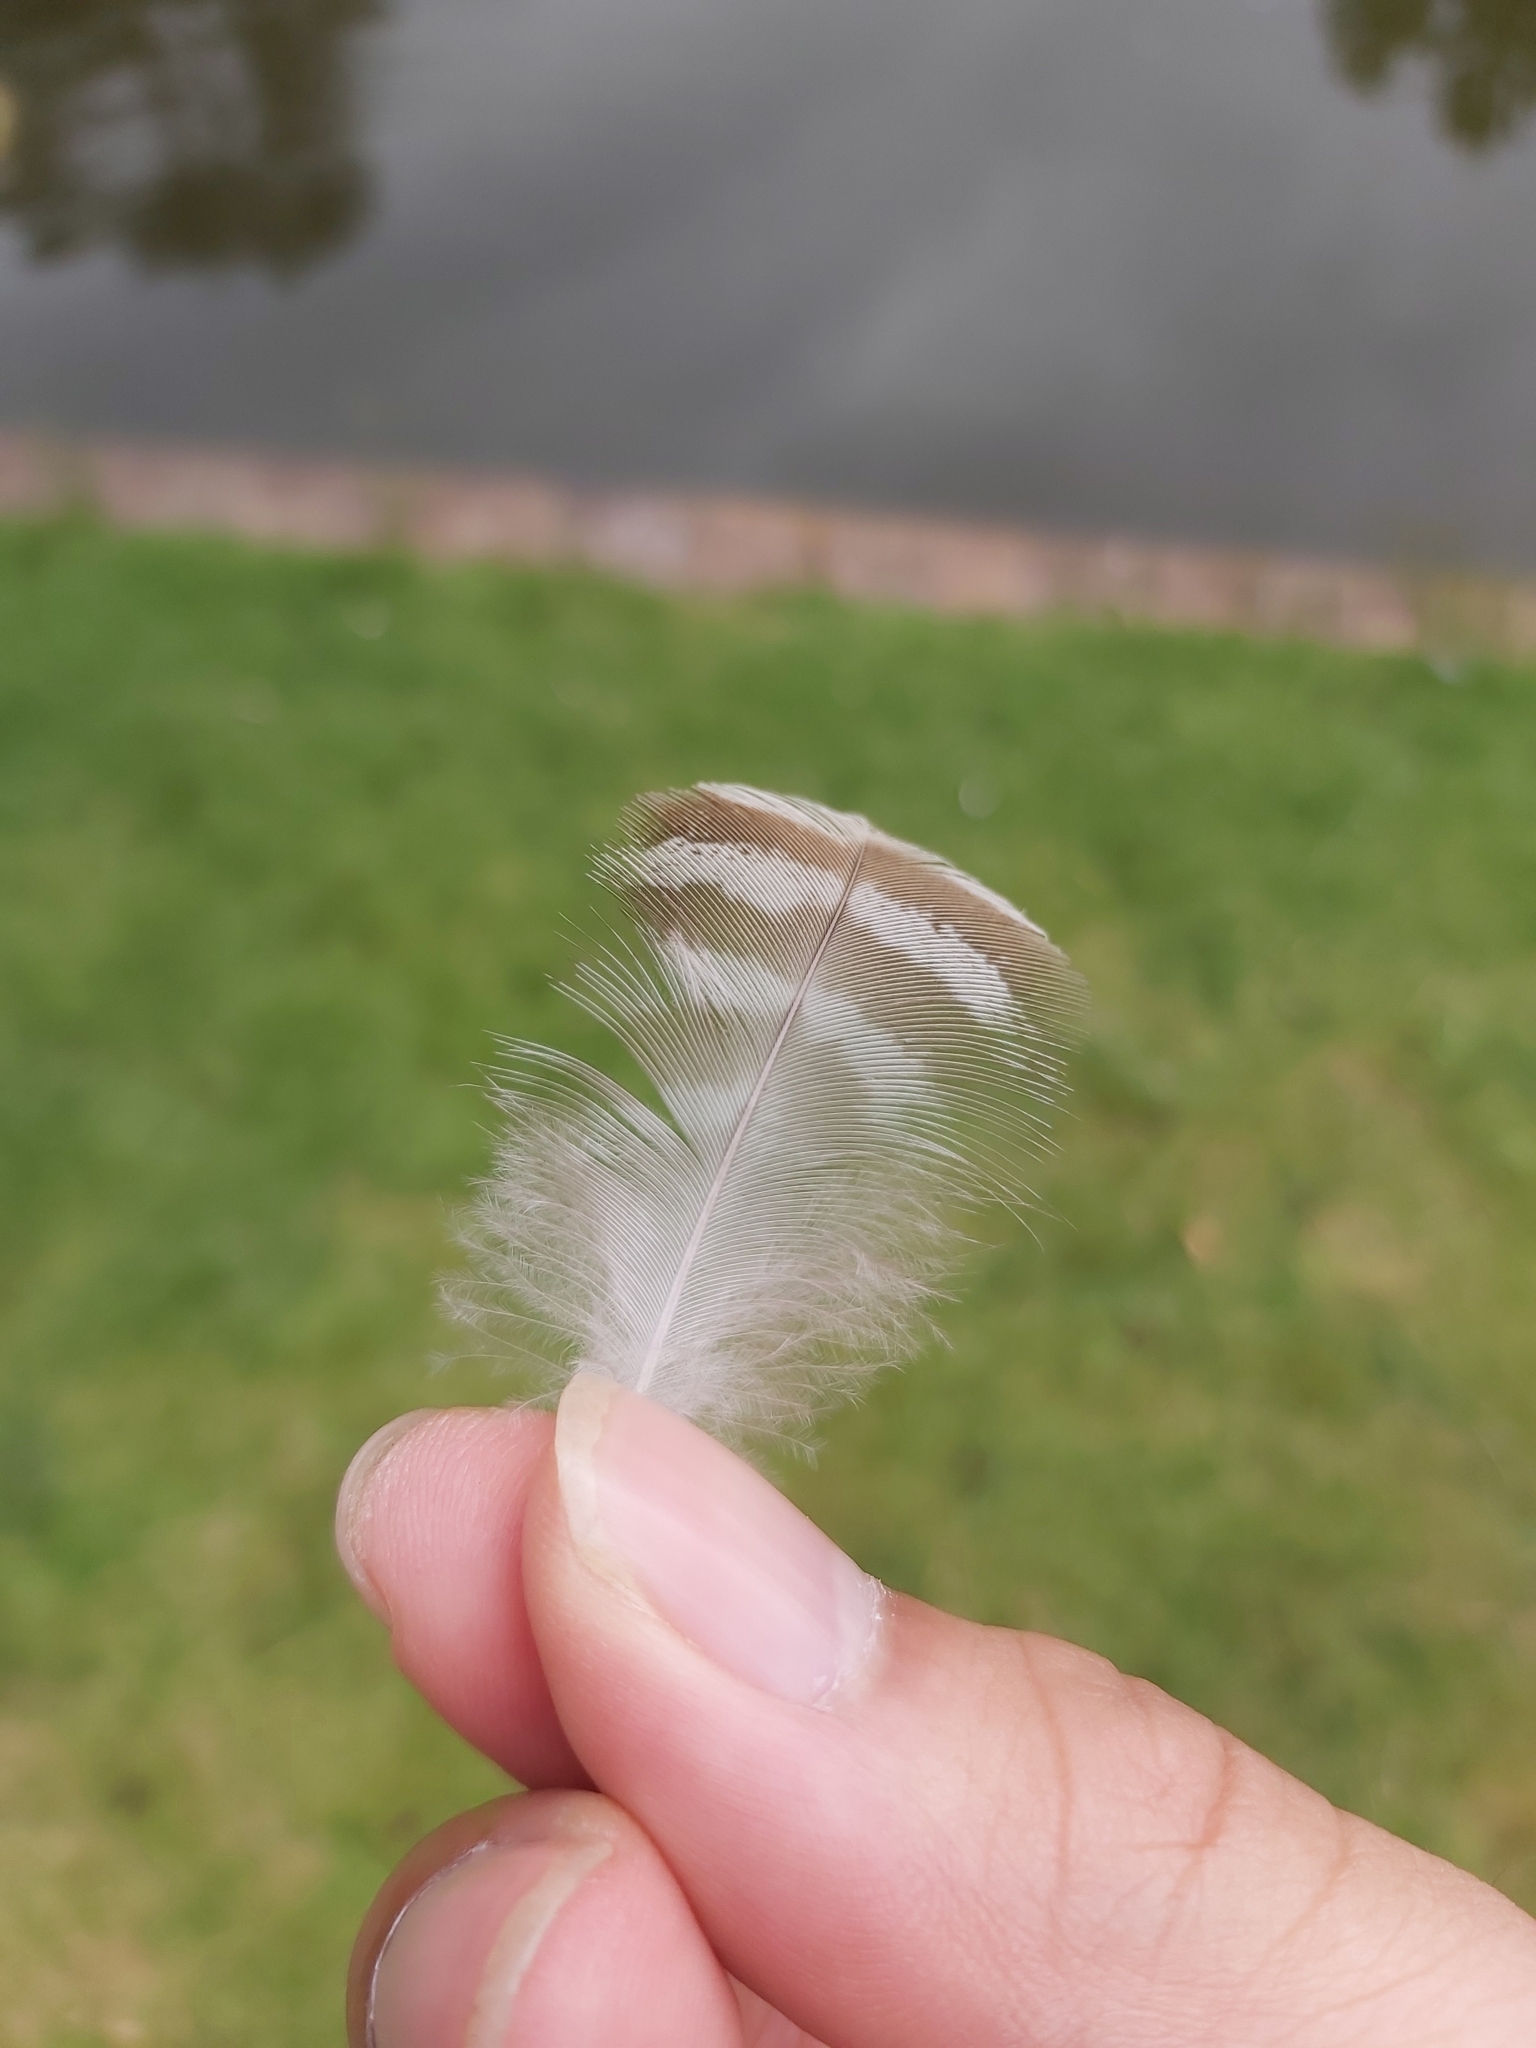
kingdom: Animalia
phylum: Chordata
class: Aves
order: Anseriformes
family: Anatidae
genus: Chenonetta
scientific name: Chenonetta jubata
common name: Maned duck
